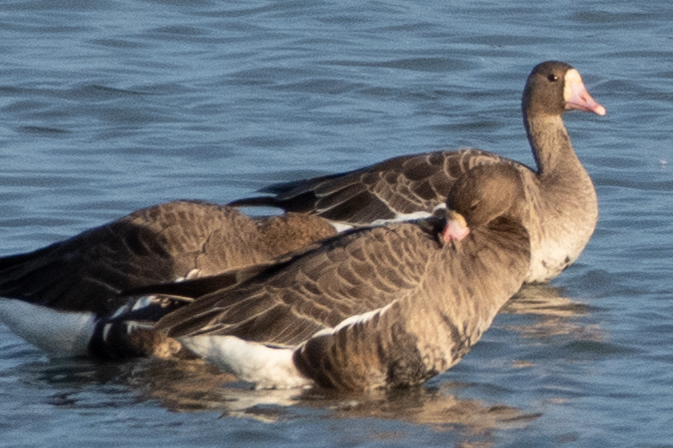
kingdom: Animalia
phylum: Chordata
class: Aves
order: Anseriformes
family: Anatidae
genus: Anser
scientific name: Anser albifrons
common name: Greater white-fronted goose
